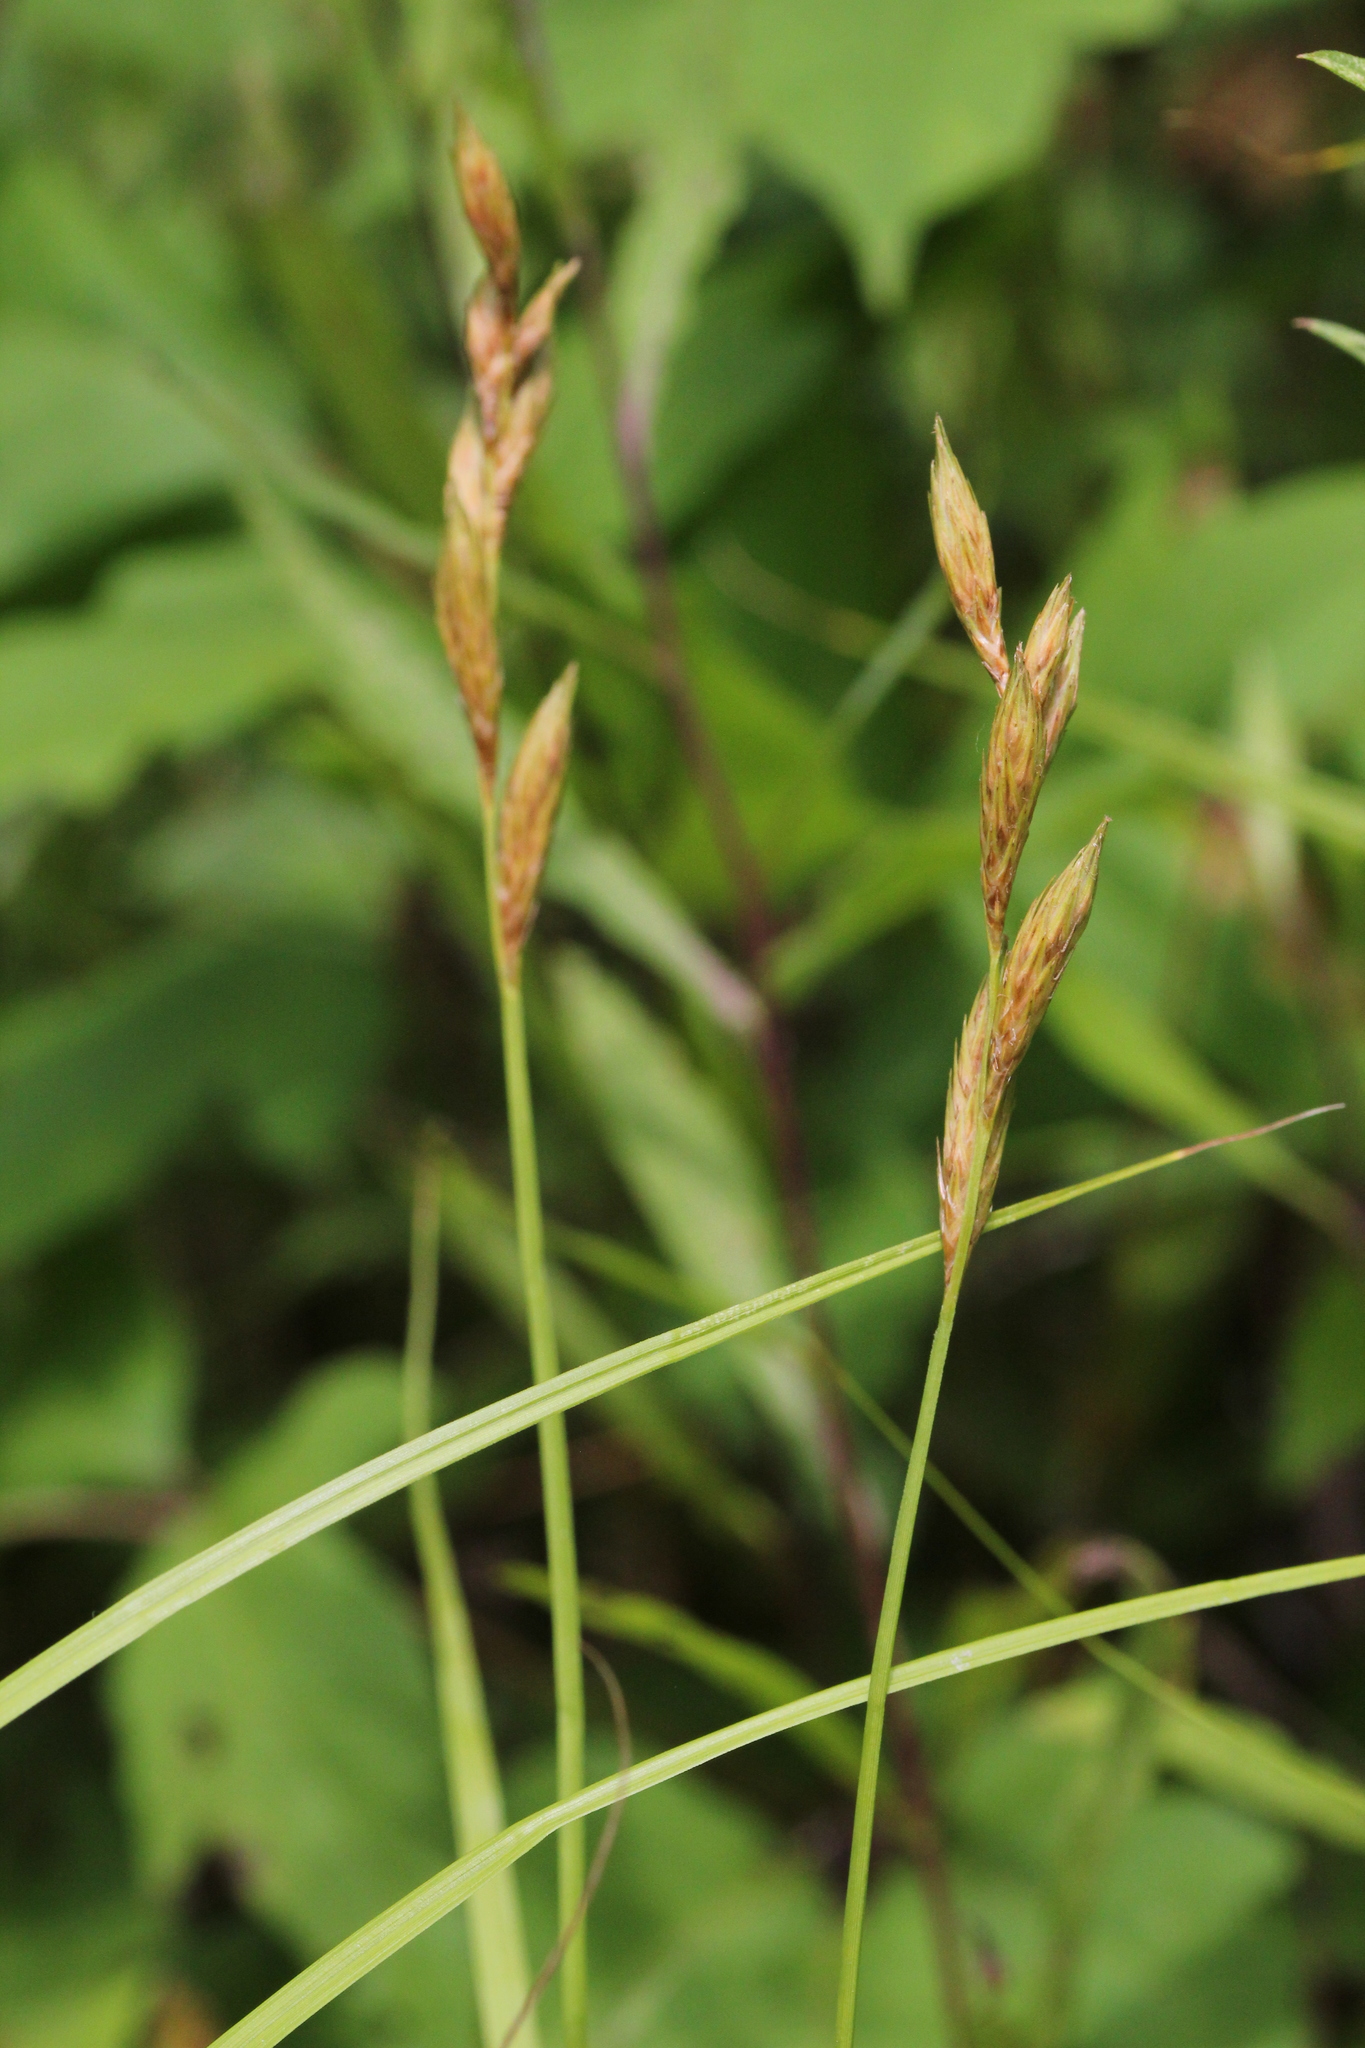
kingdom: Plantae
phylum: Tracheophyta
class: Liliopsida
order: Poales
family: Cyperaceae
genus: Carex
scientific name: Carex muskingumensis
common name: Muskingum sedge
